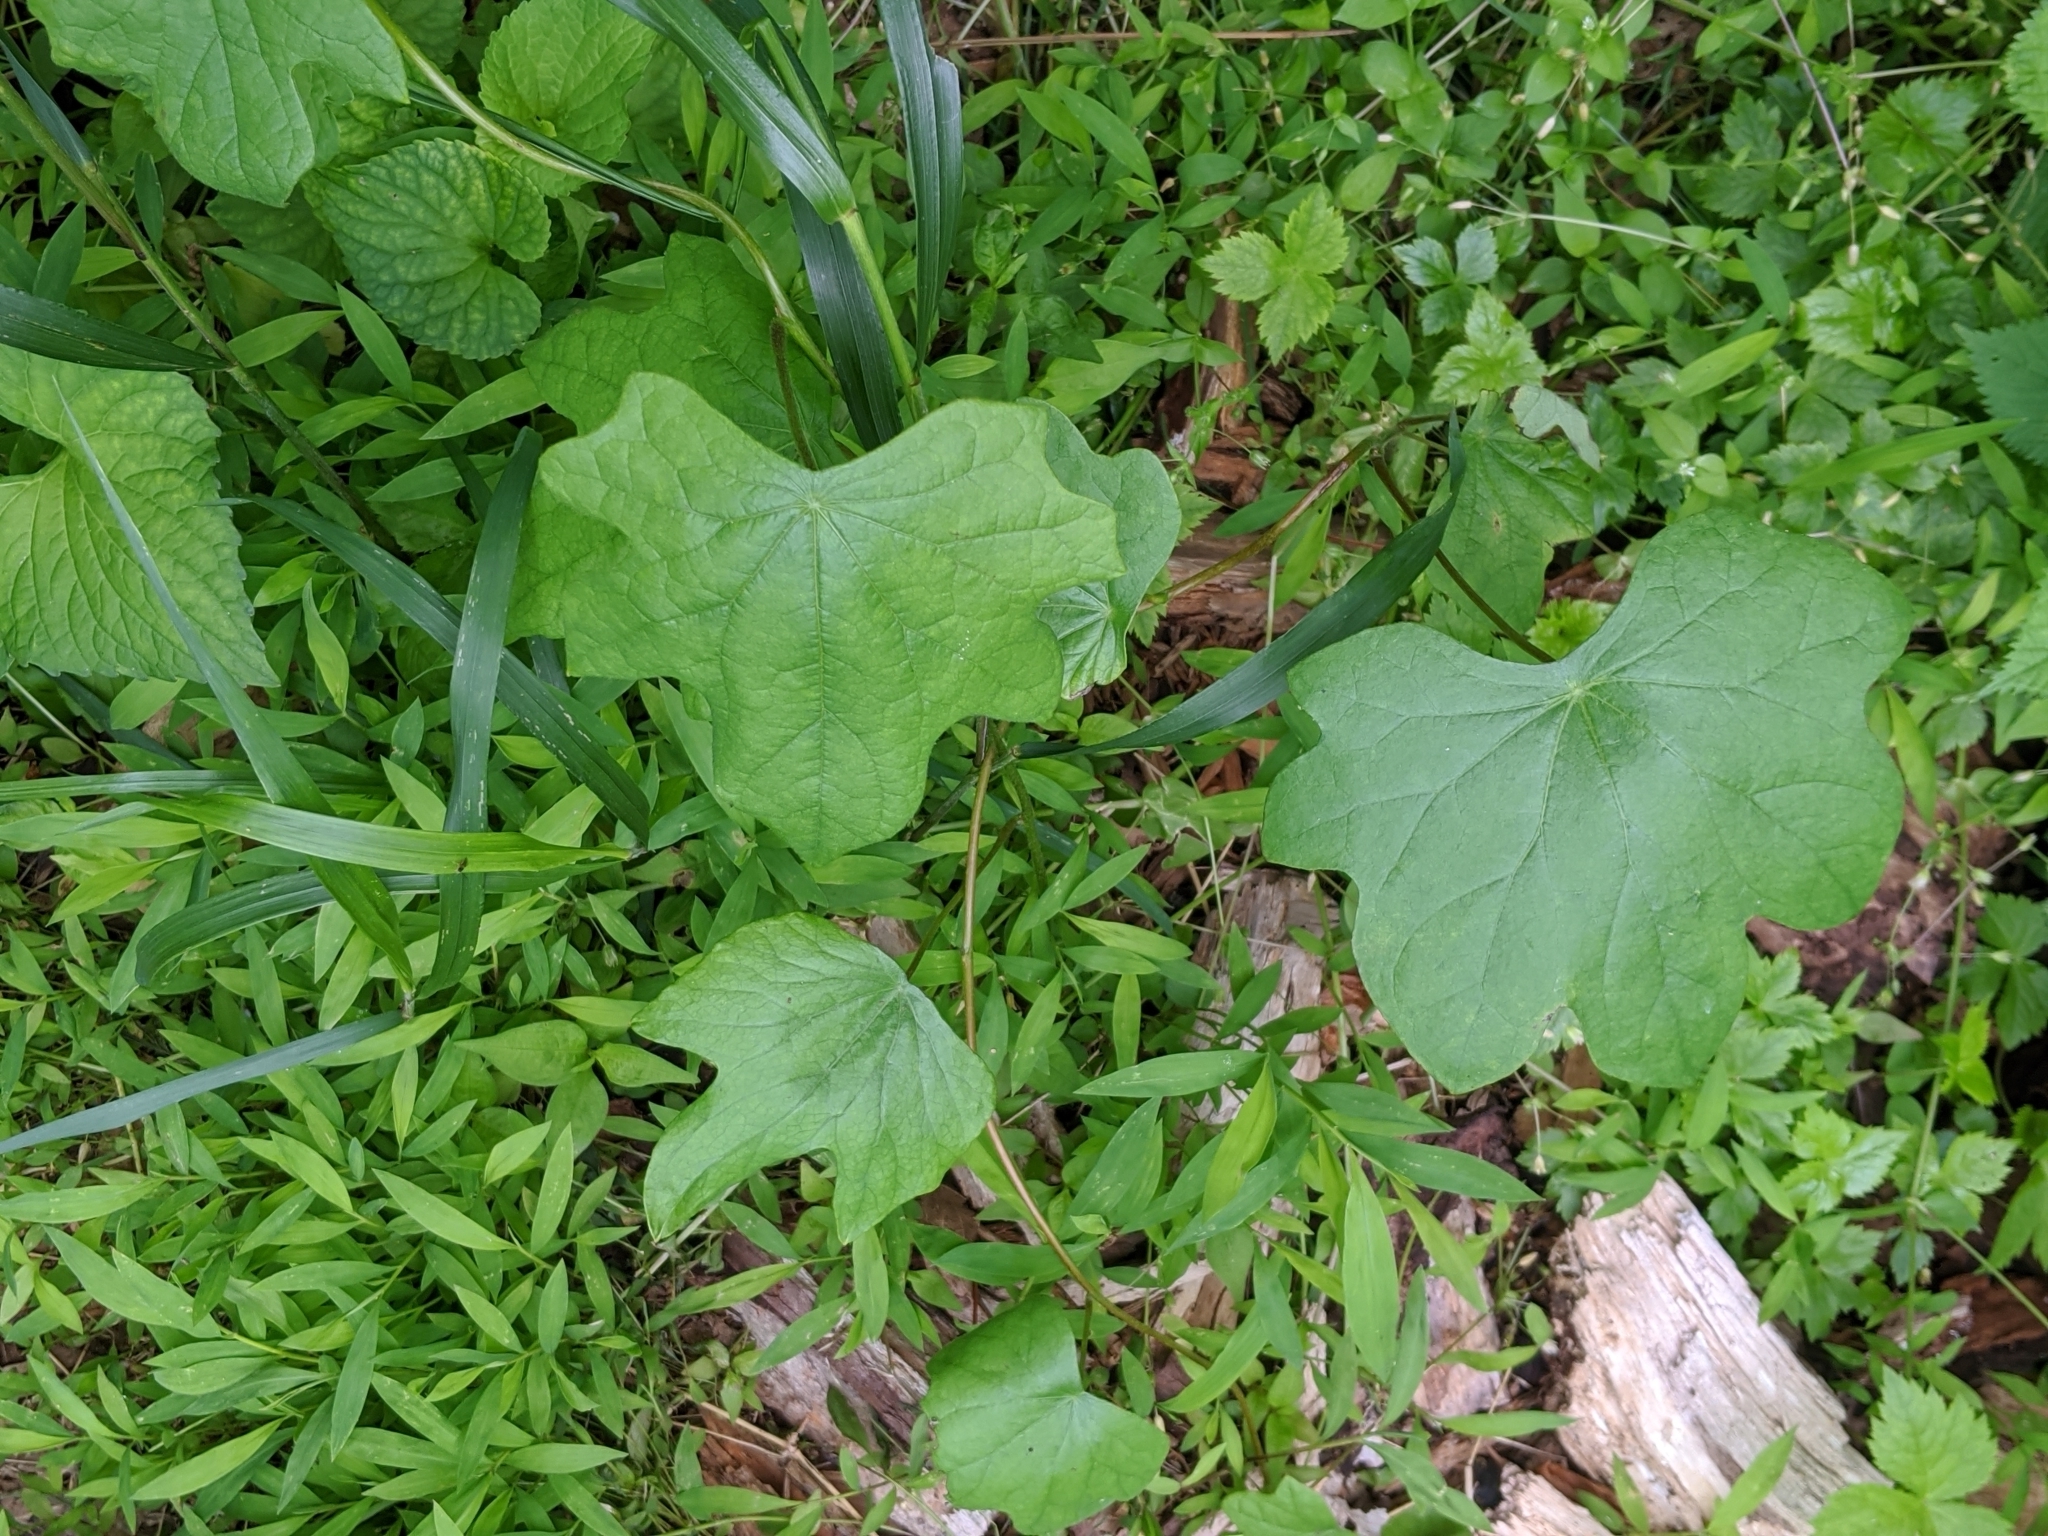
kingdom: Plantae
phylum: Tracheophyta
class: Magnoliopsida
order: Ranunculales
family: Menispermaceae
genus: Menispermum
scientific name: Menispermum canadense
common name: Moonseed
